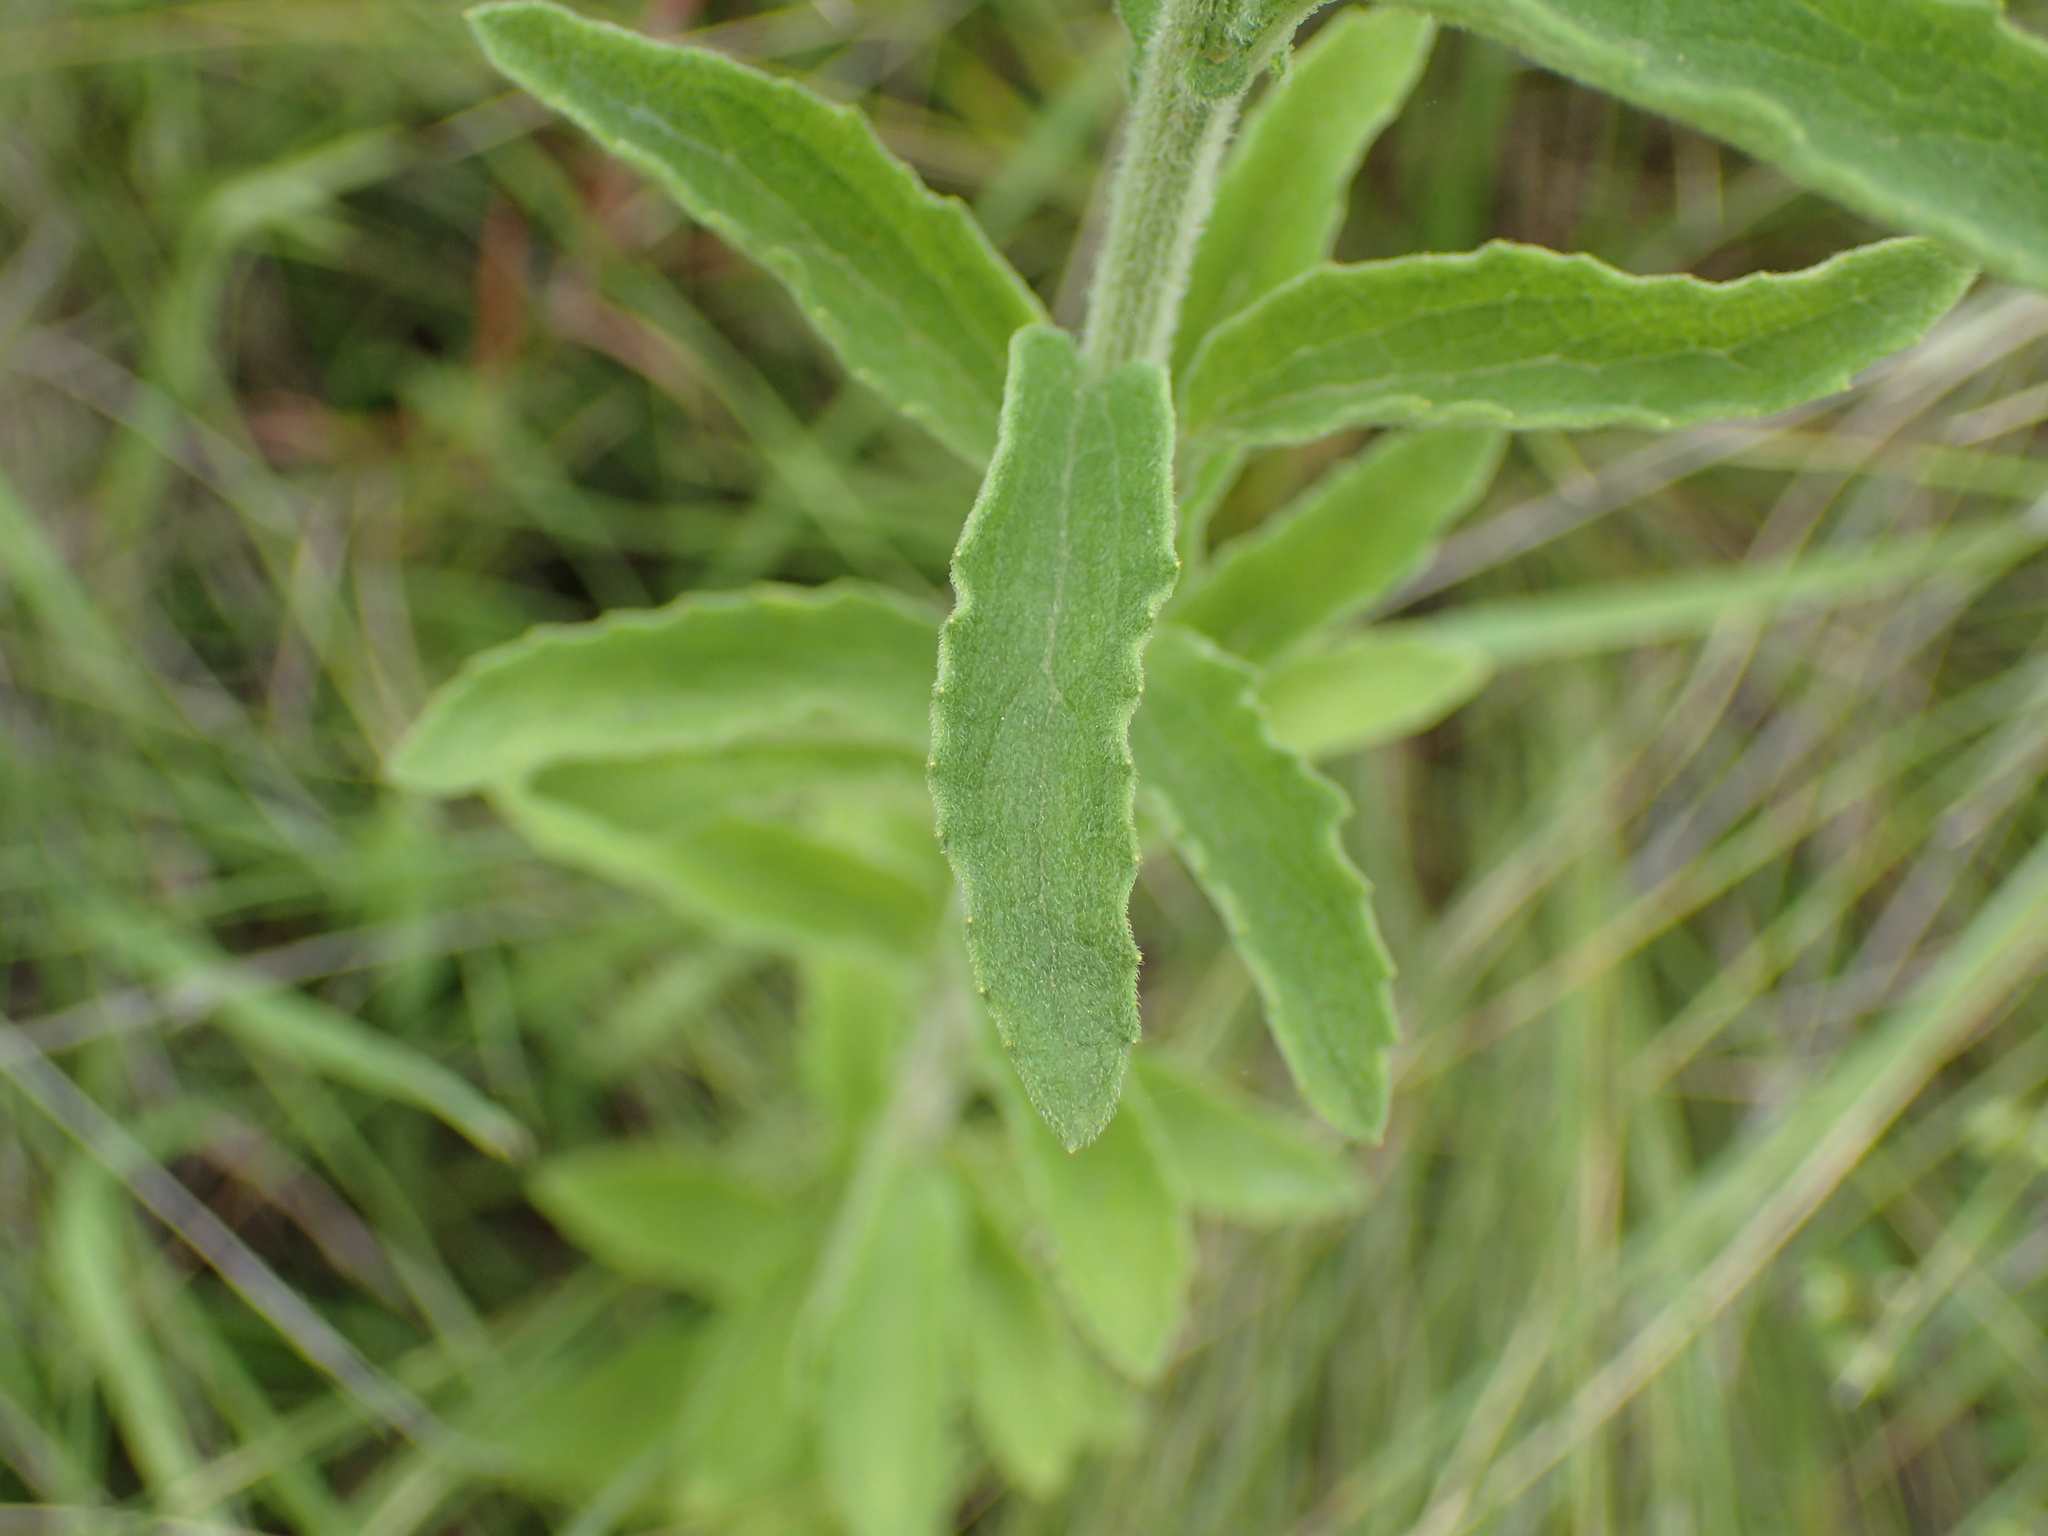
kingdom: Plantae
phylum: Tracheophyta
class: Magnoliopsida
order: Asterales
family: Asteraceae
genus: Nidorella
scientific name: Nidorella auriculata
